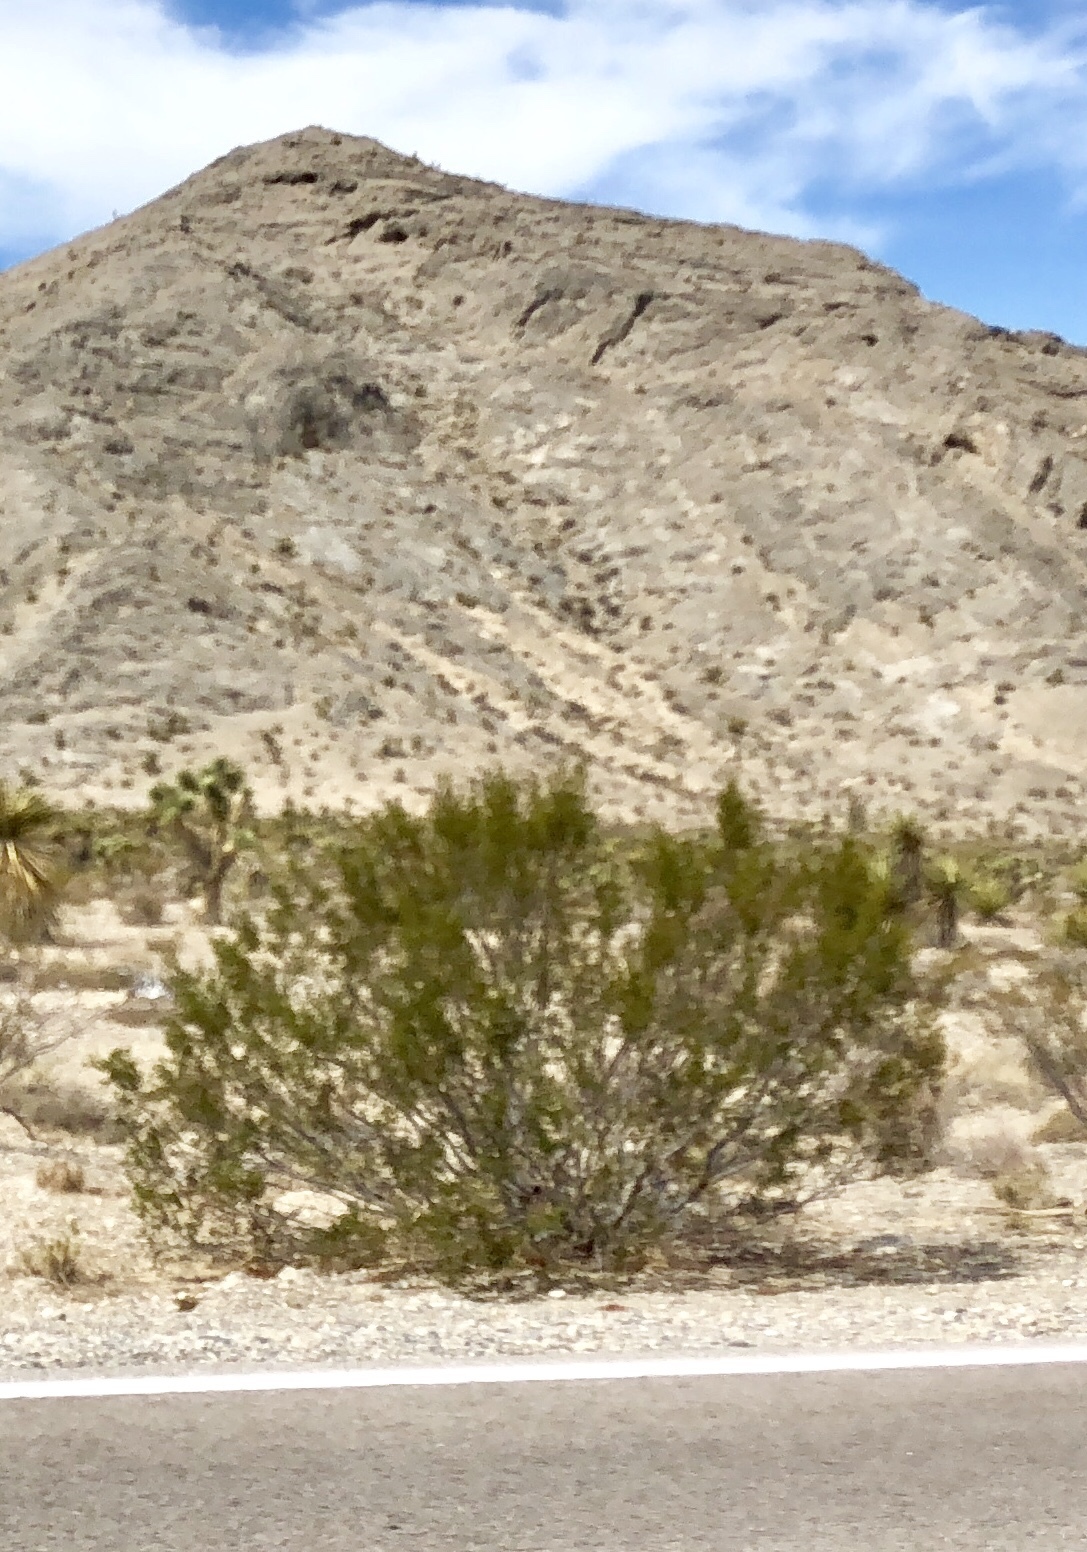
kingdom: Plantae
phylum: Tracheophyta
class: Magnoliopsida
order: Zygophyllales
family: Zygophyllaceae
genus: Larrea
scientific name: Larrea tridentata
